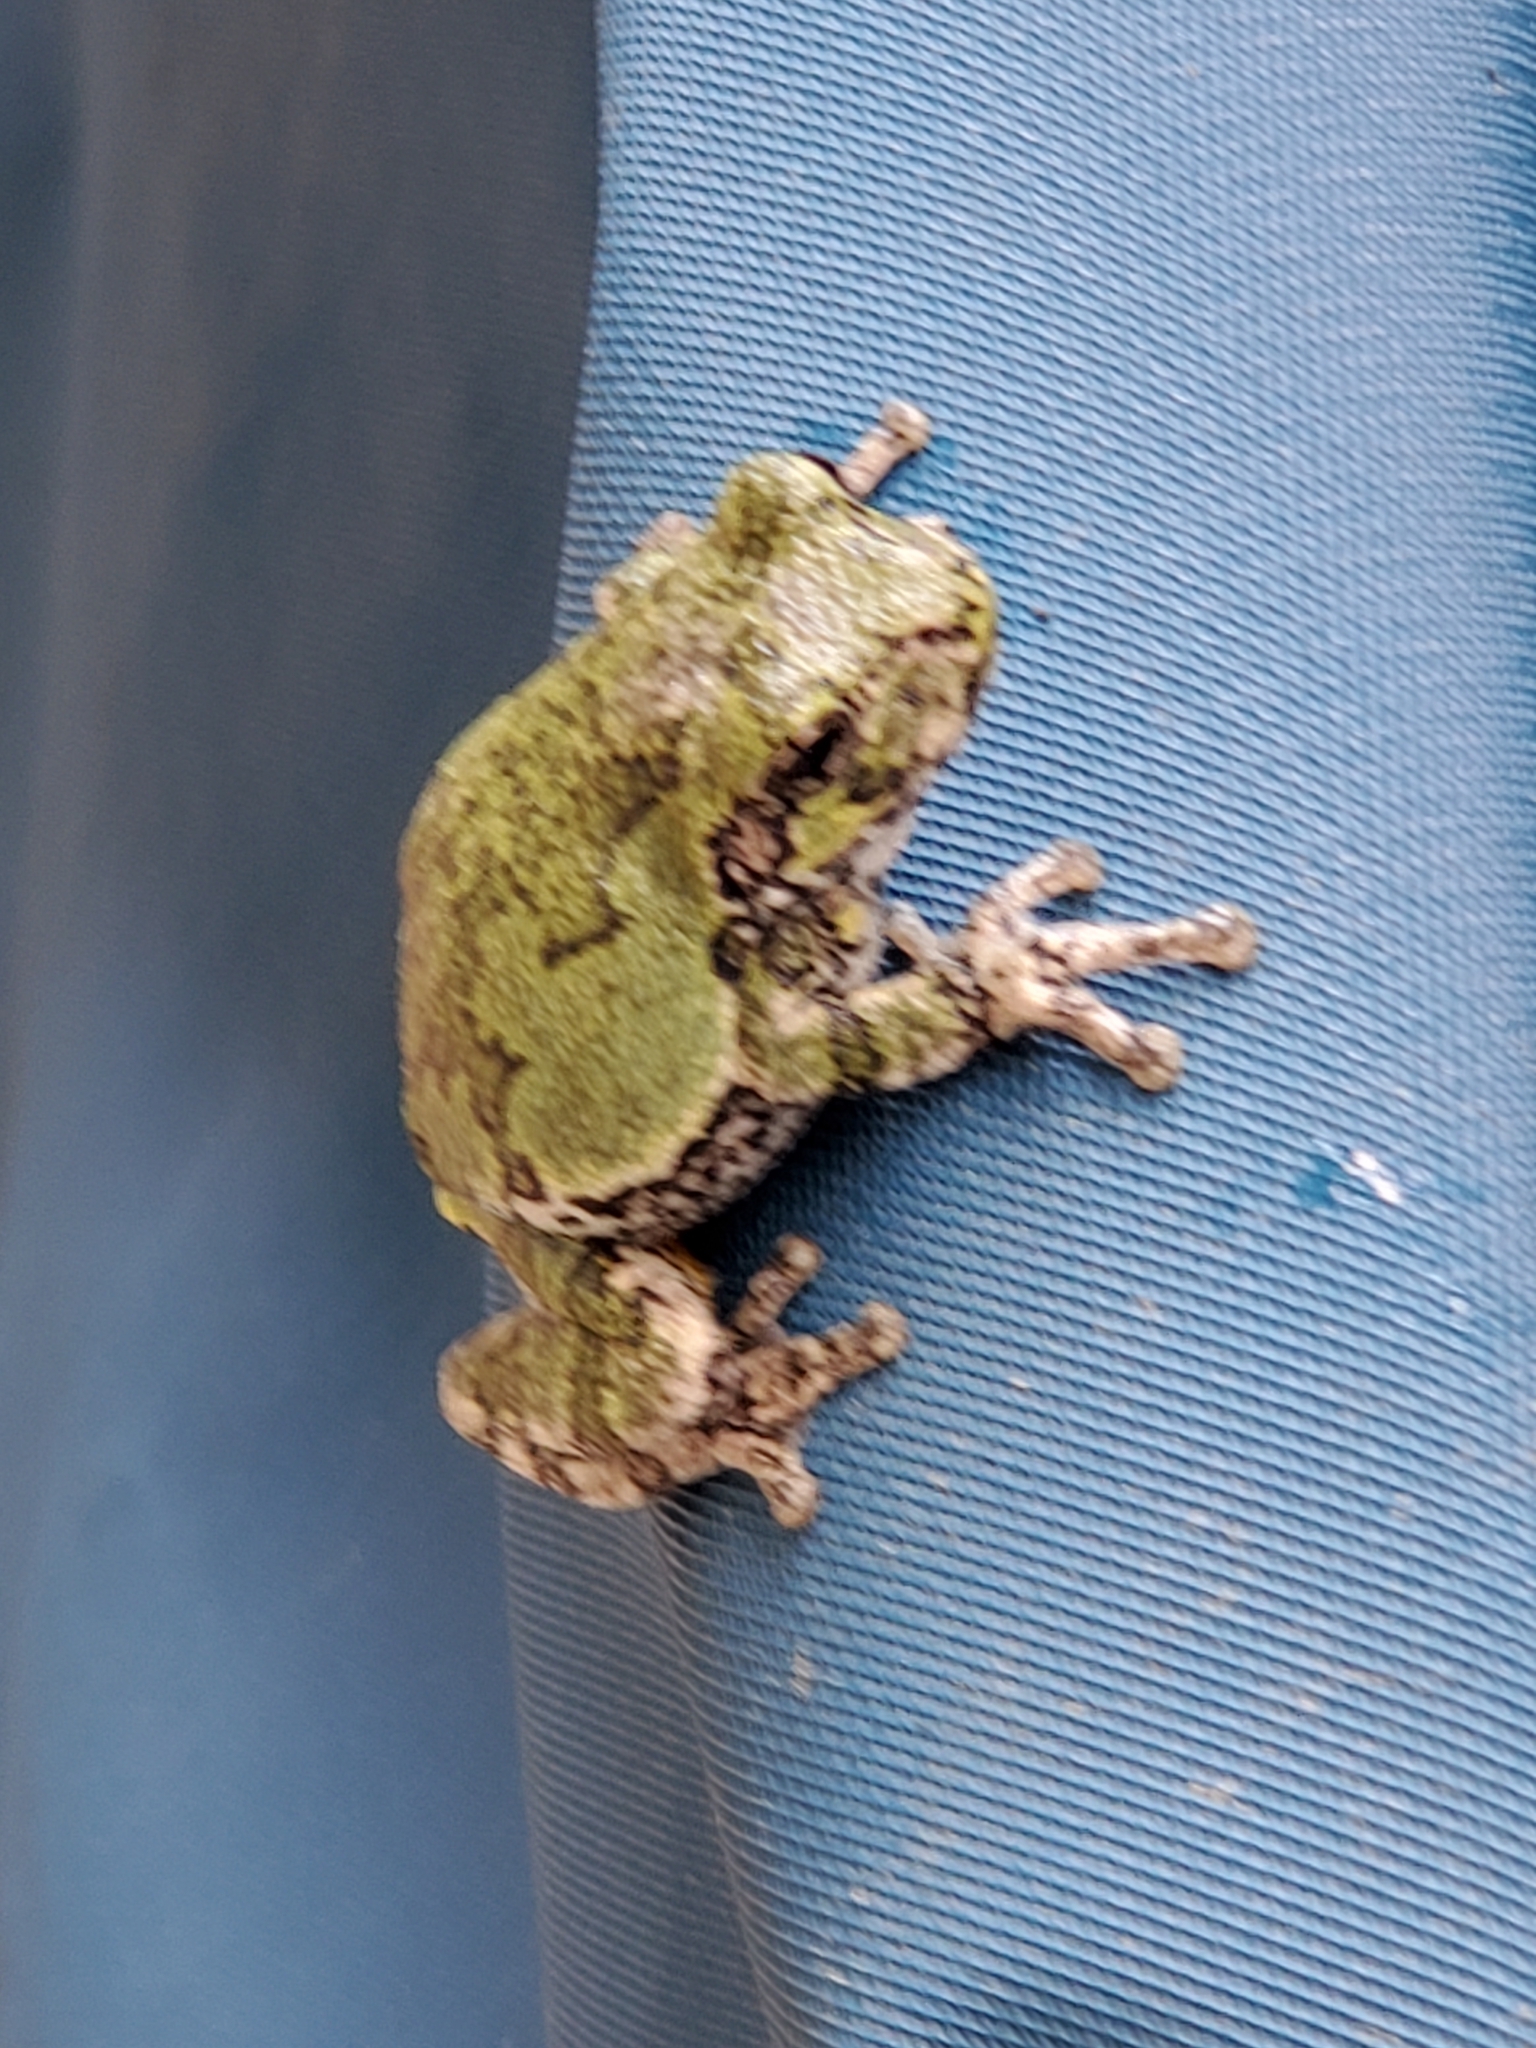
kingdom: Animalia
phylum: Chordata
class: Amphibia
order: Anura
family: Hylidae
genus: Dryophytes
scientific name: Dryophytes versicolor
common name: Gray treefrog
